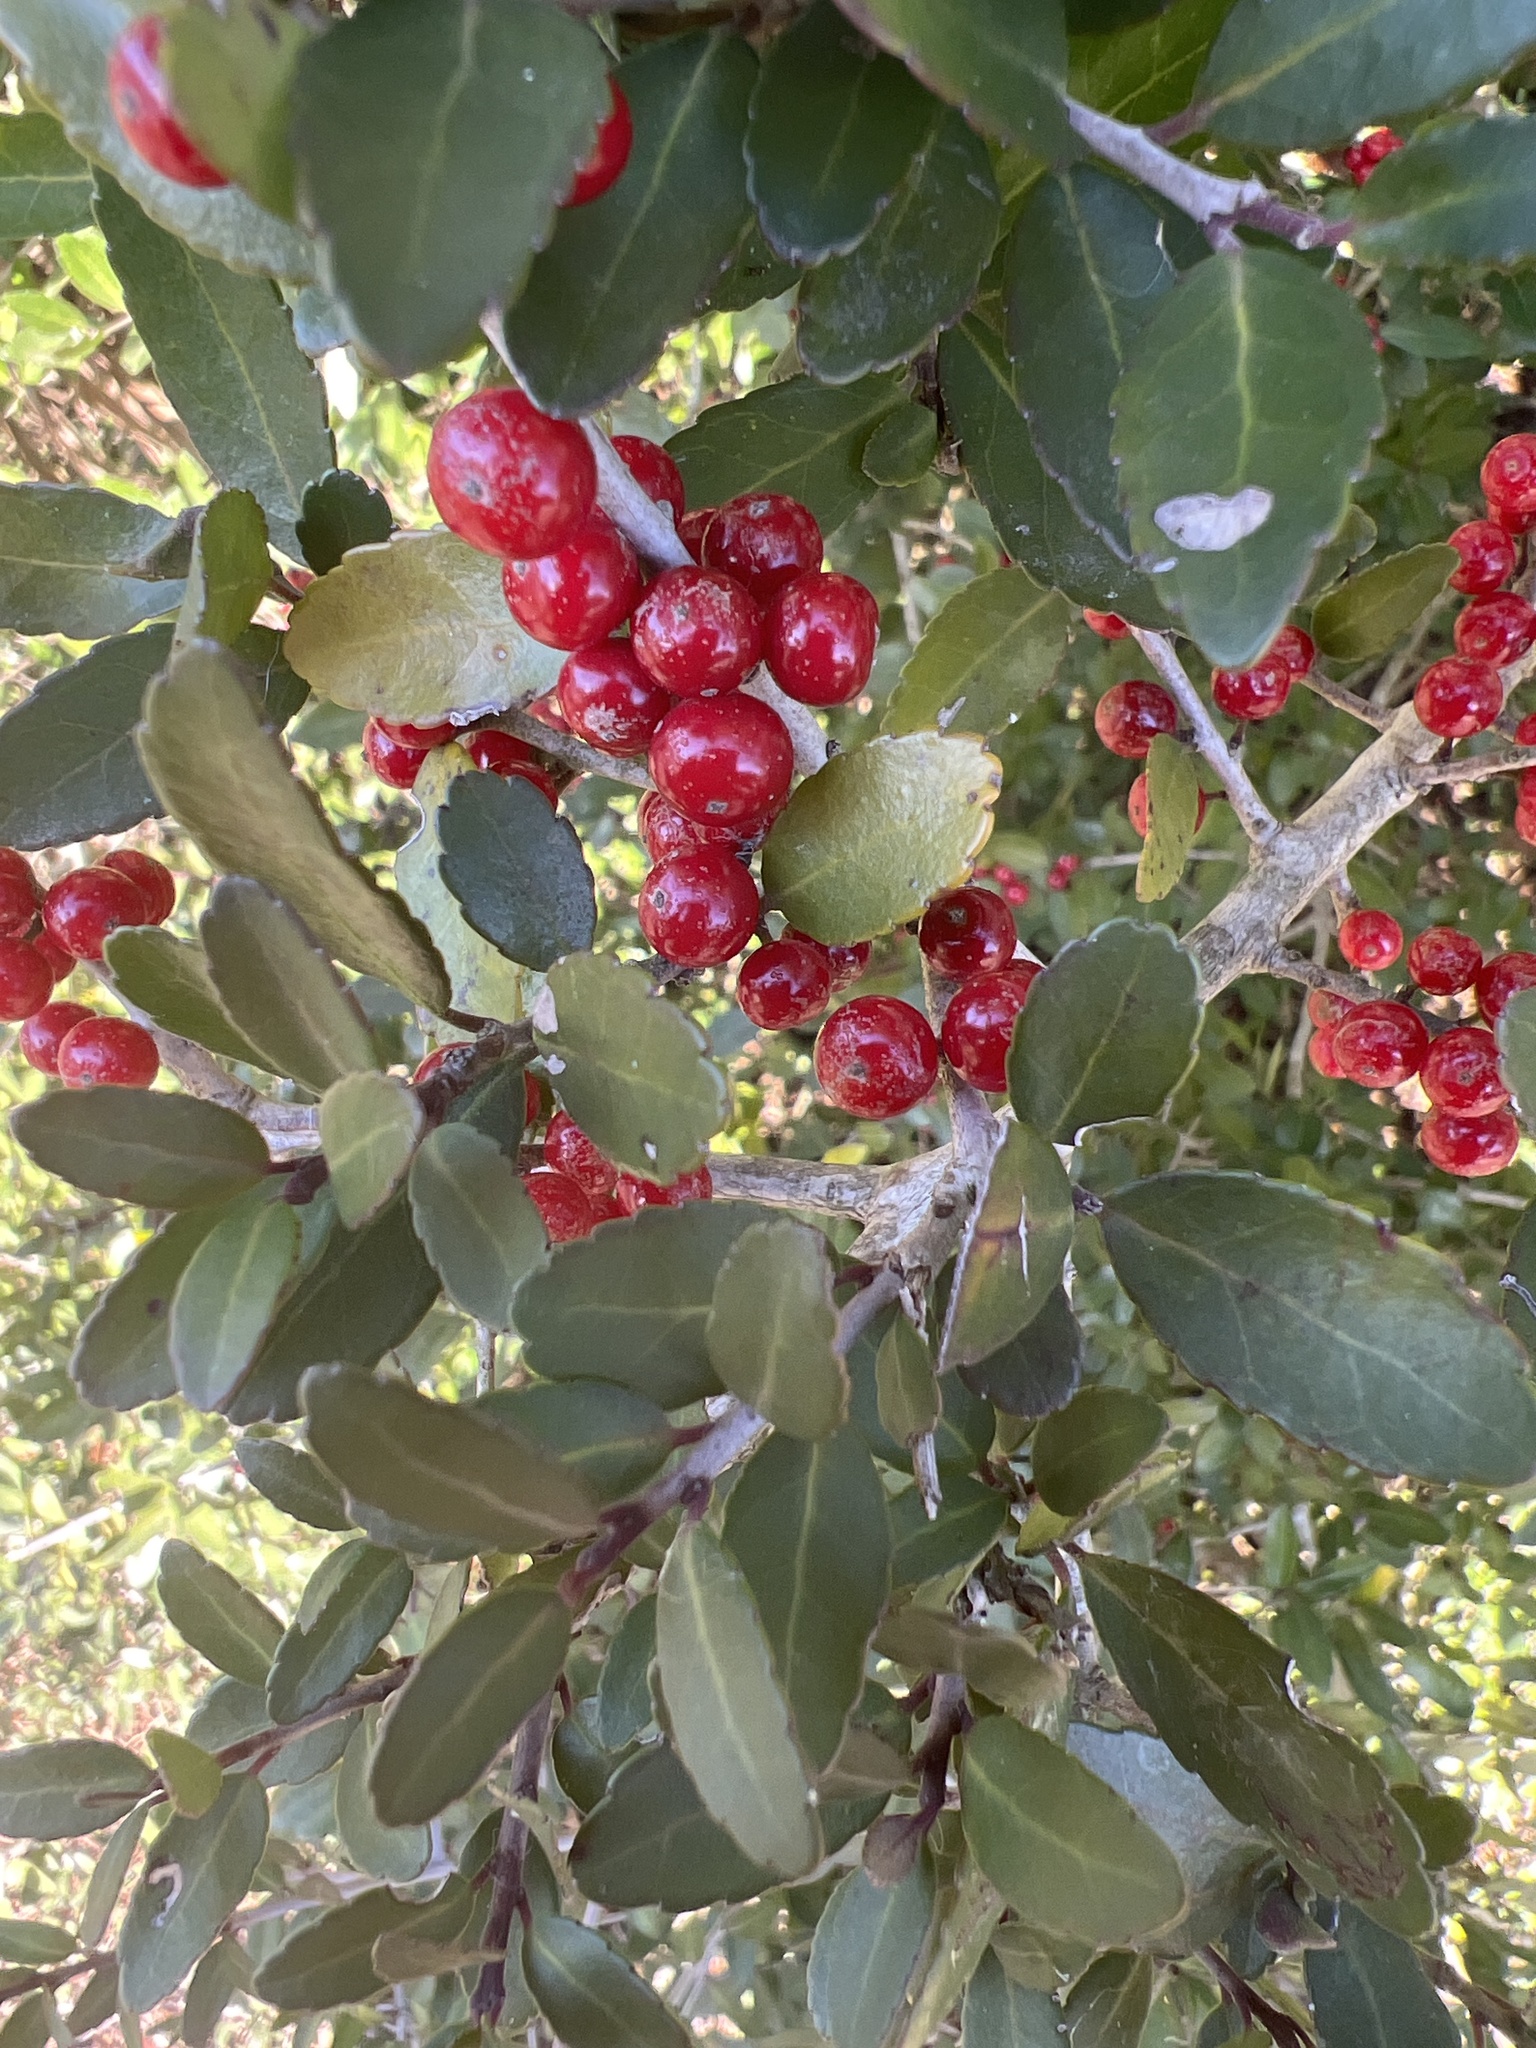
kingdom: Plantae
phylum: Tracheophyta
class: Magnoliopsida
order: Aquifoliales
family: Aquifoliaceae
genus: Ilex
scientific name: Ilex vomitoria
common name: Yaupon holly
